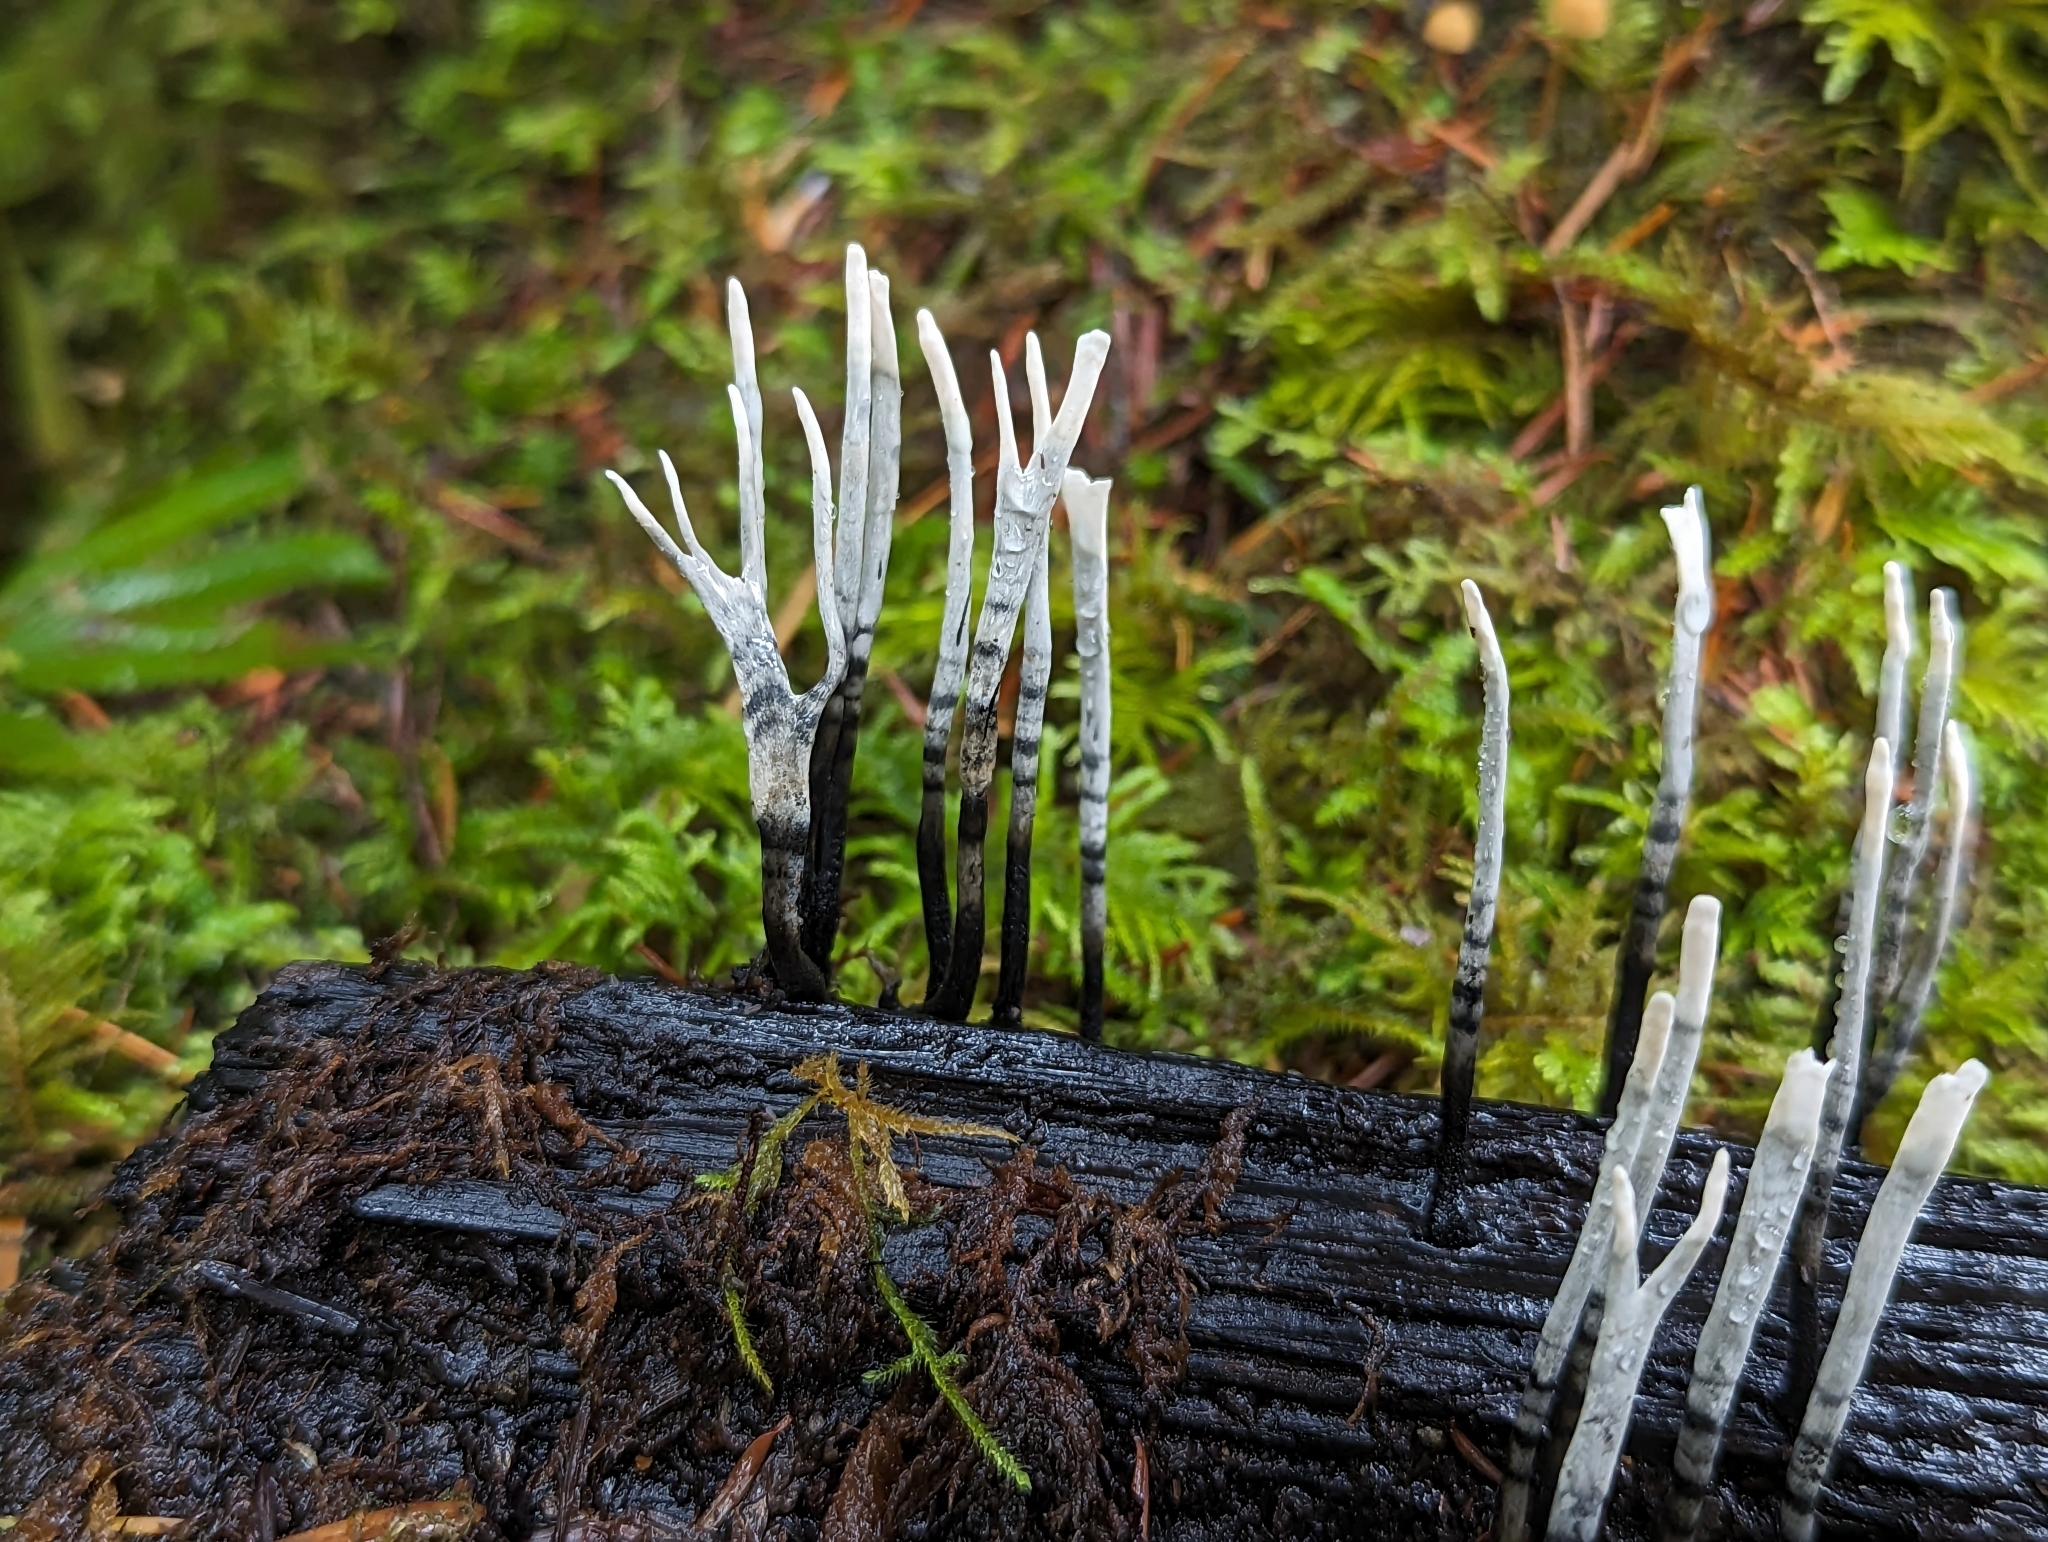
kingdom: Fungi
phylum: Ascomycota
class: Sordariomycetes
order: Xylariales
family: Xylariaceae
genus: Xylaria
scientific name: Xylaria hypoxylon
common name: Candle-snuff fungus
